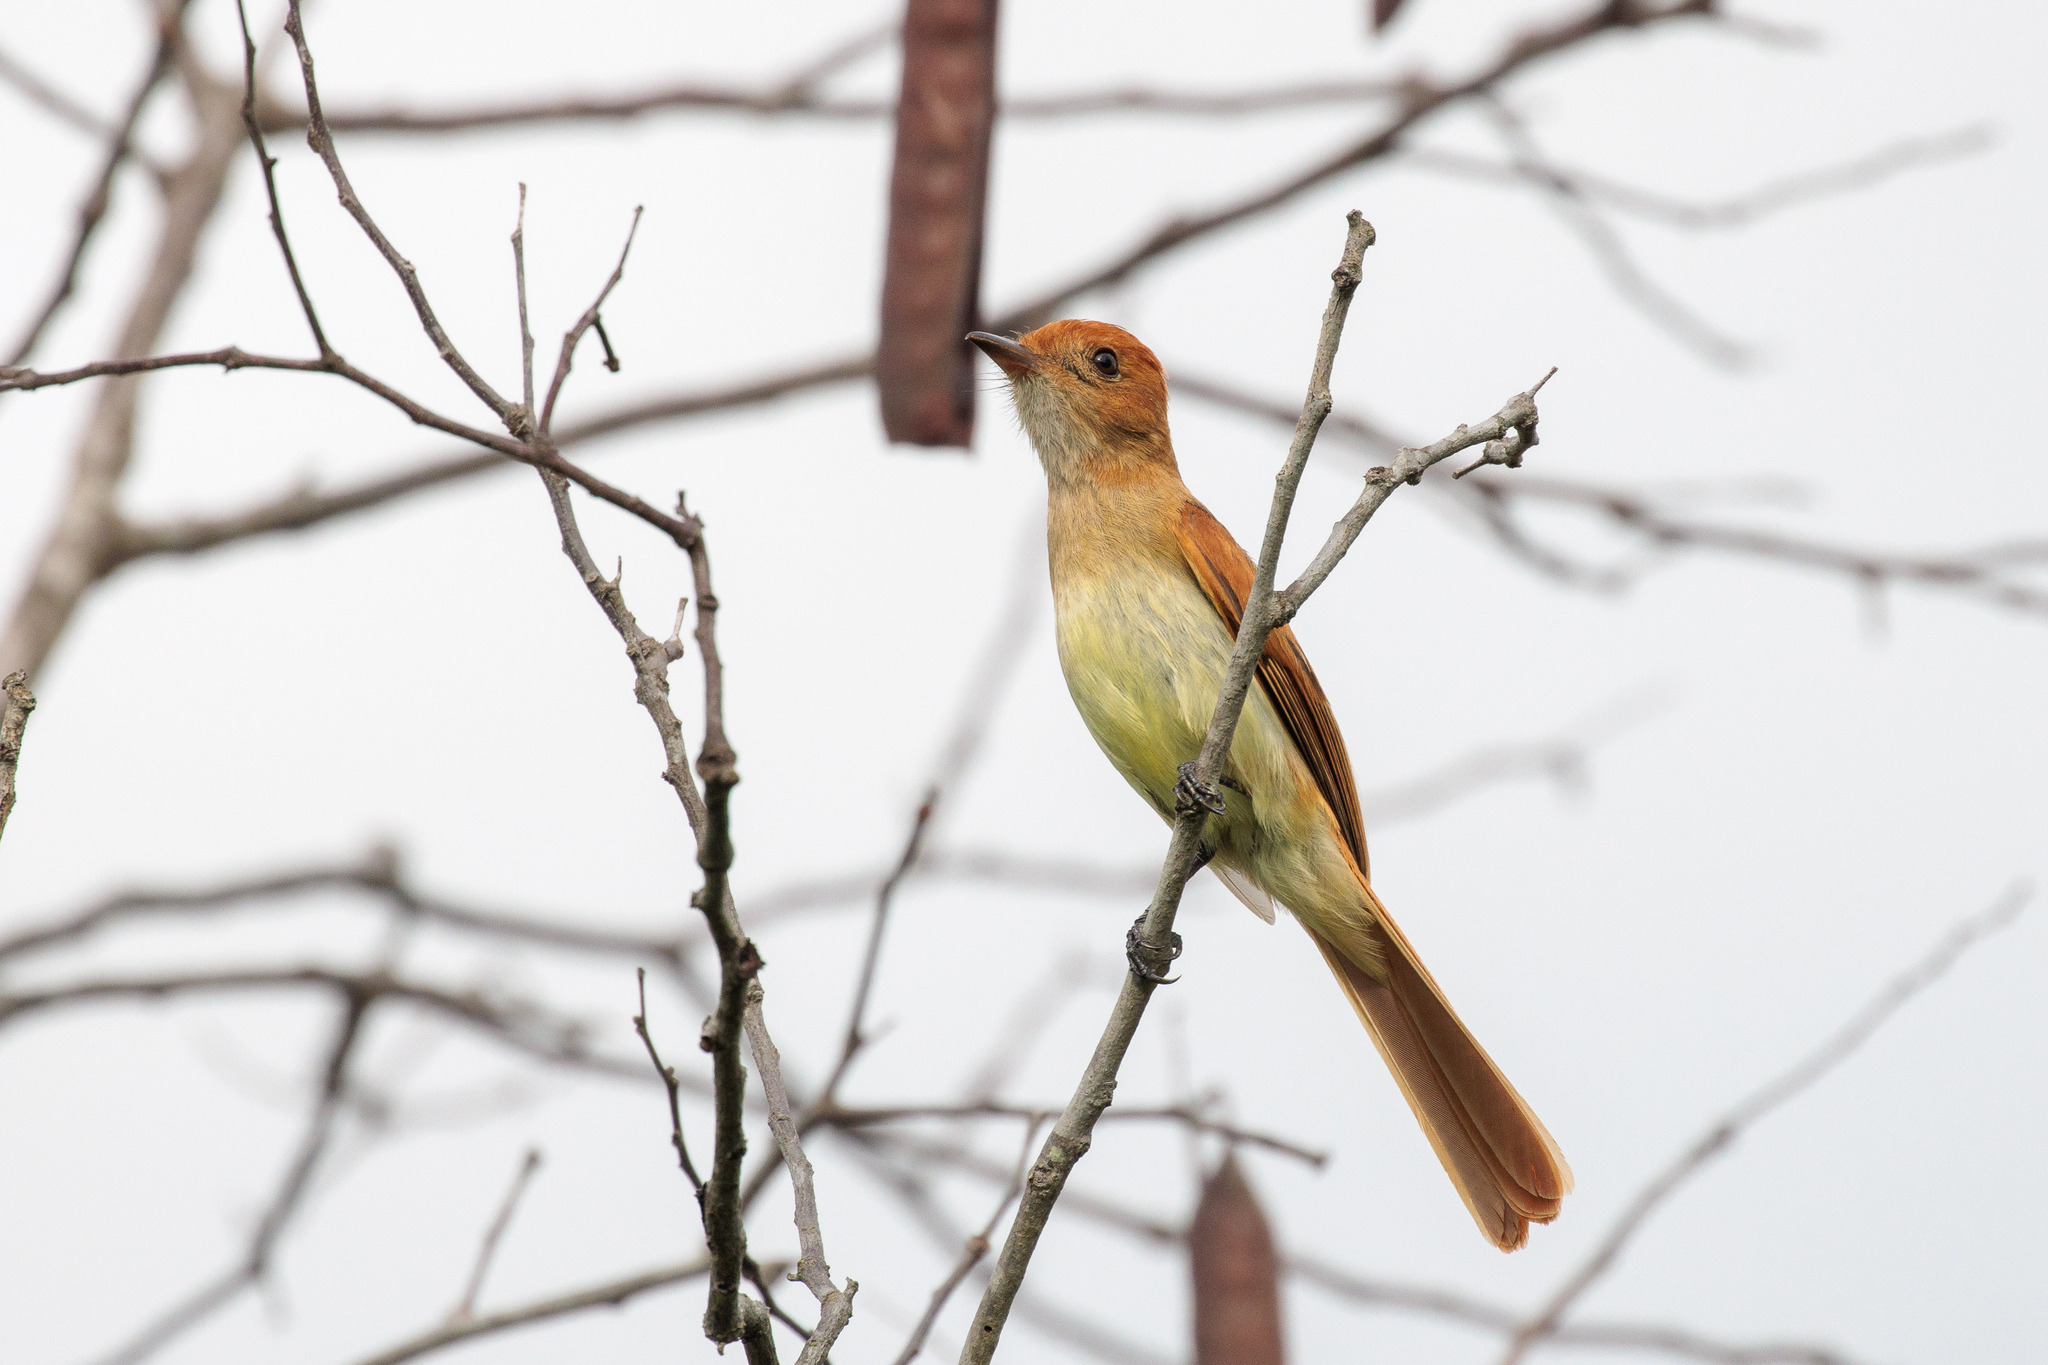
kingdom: Animalia
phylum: Chordata
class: Aves
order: Passeriformes
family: Tyrannidae
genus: Casiornis
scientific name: Casiornis fuscus
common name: Ash-throated casiornis
